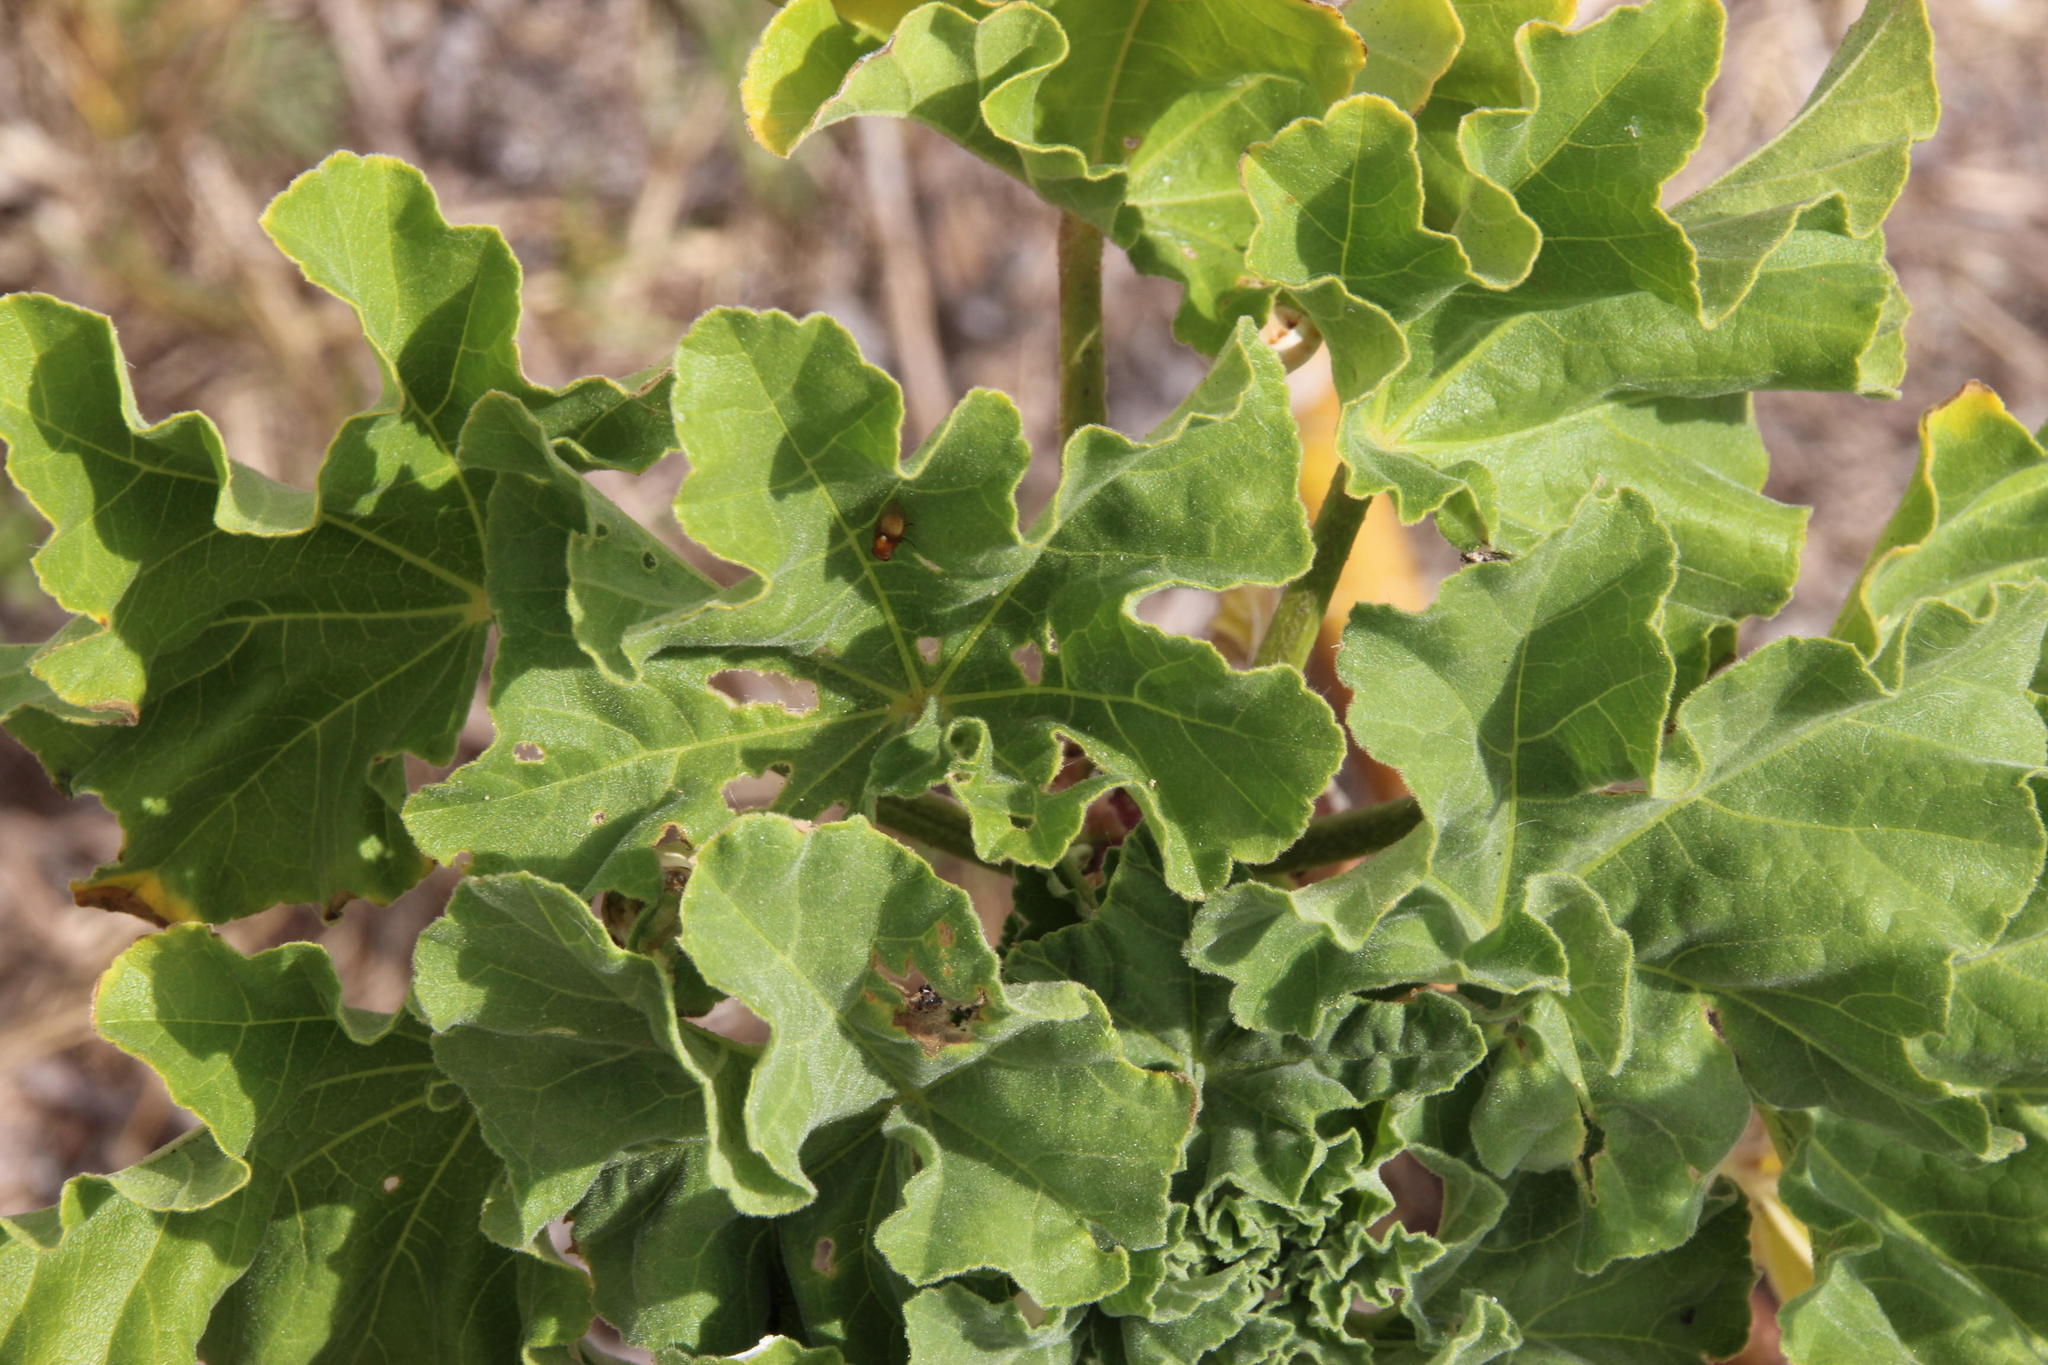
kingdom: Plantae
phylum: Tracheophyta
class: Magnoliopsida
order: Malvales
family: Malvaceae
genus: Malva
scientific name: Malva arborea
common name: Tree mallow
